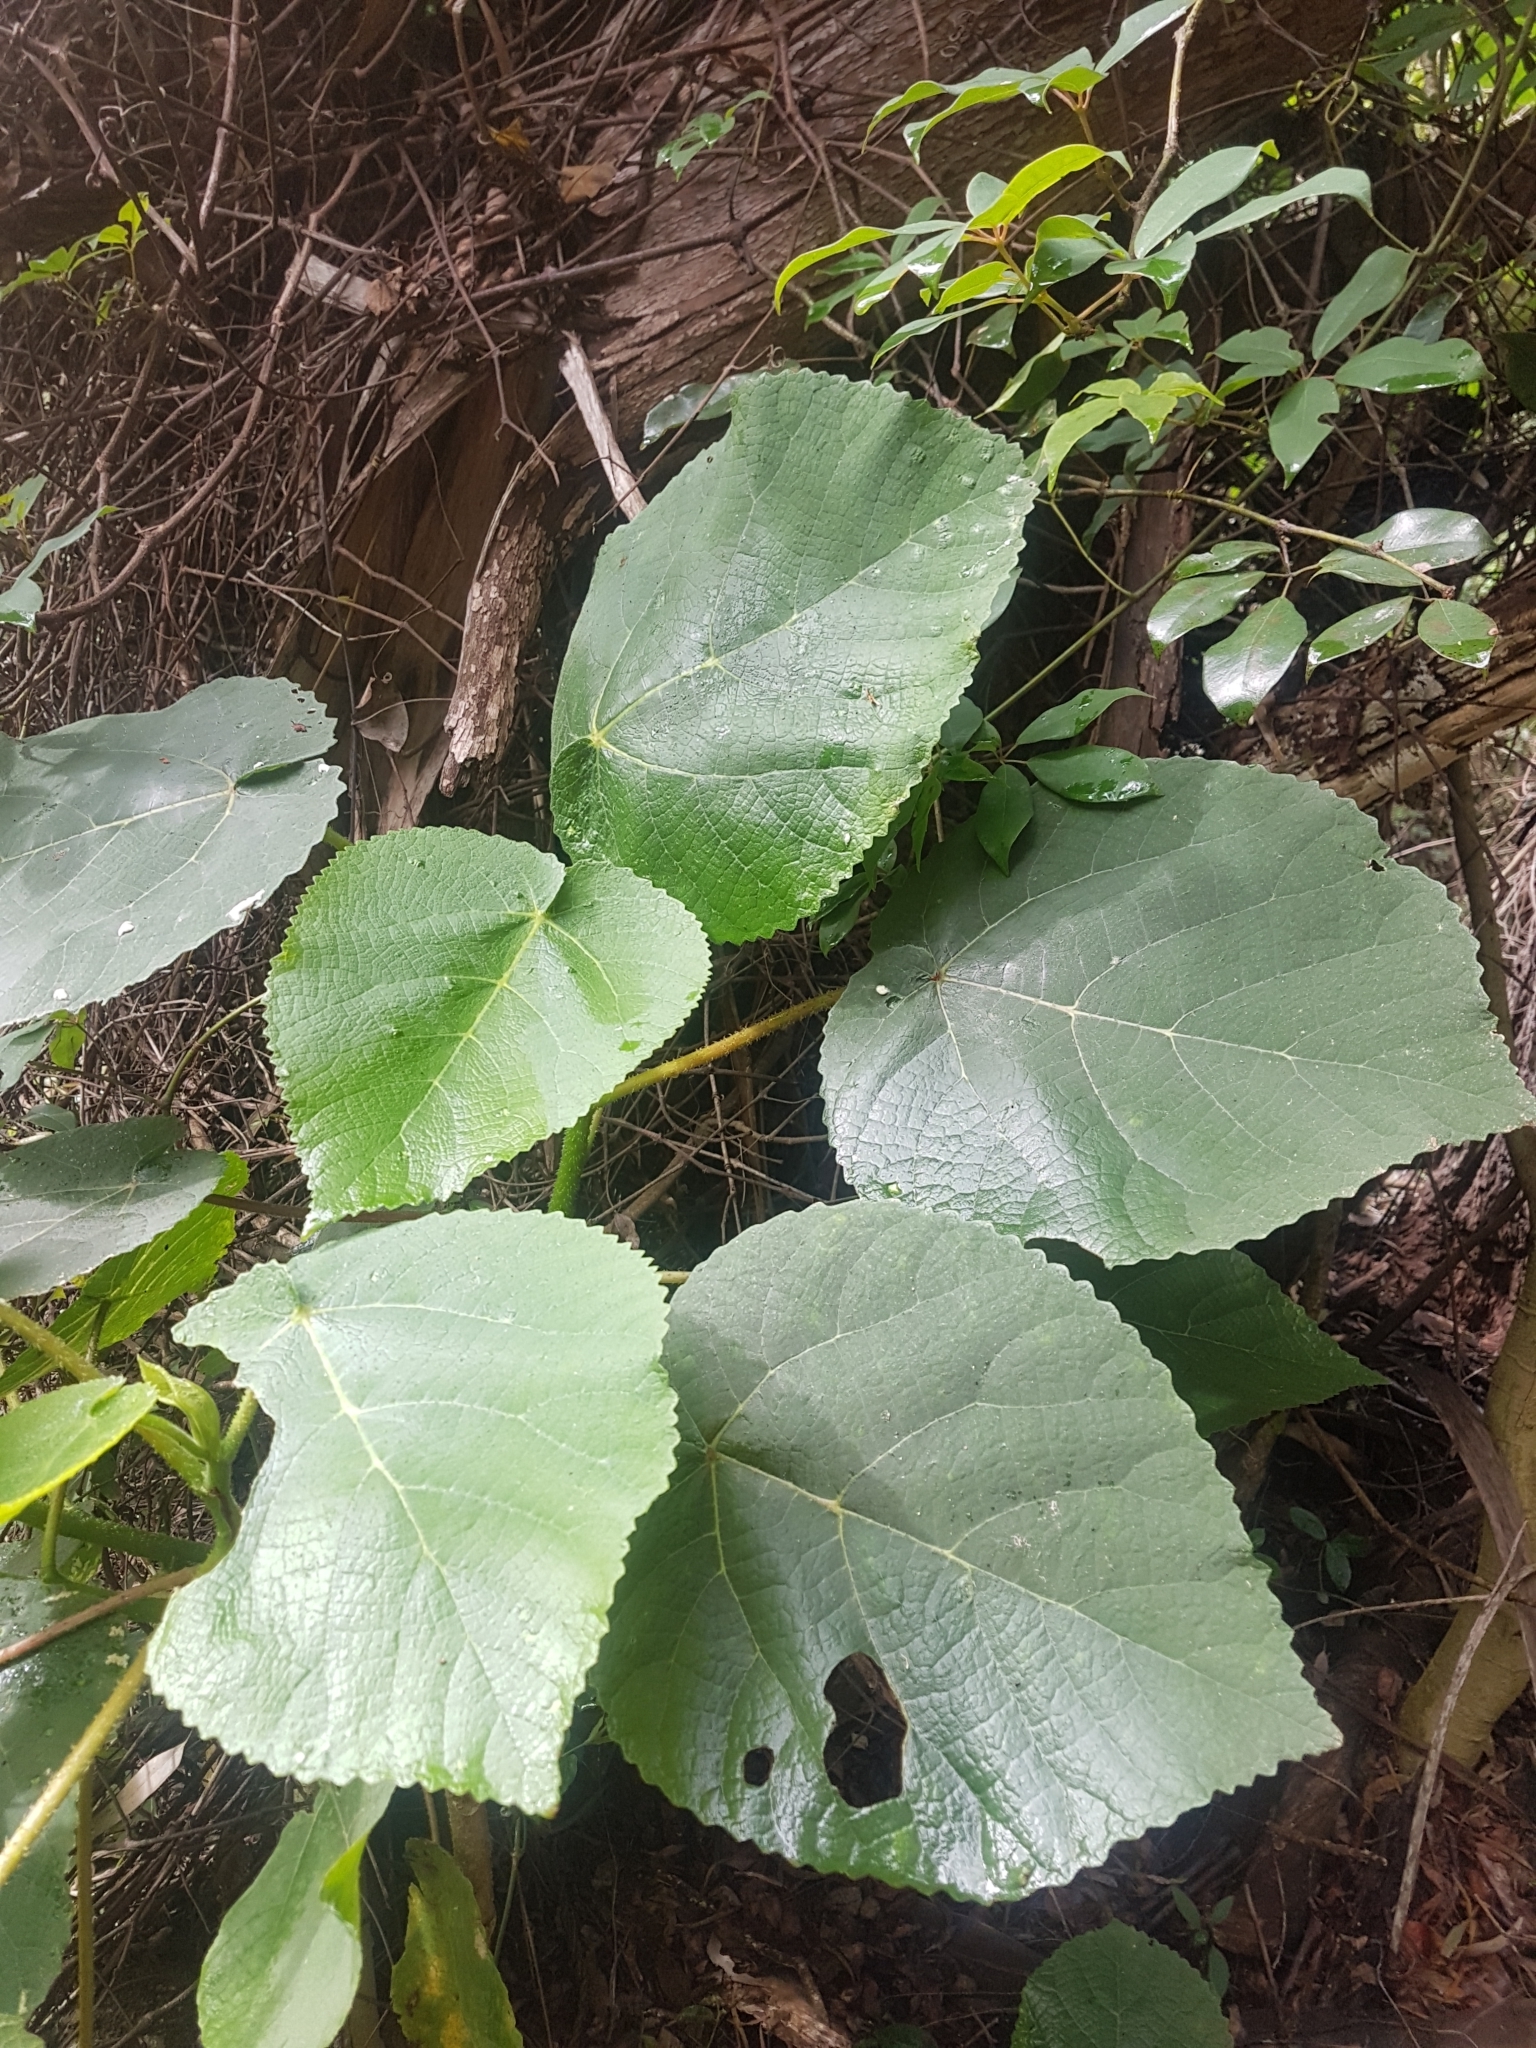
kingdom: Plantae
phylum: Tracheophyta
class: Magnoliopsida
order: Rosales
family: Urticaceae
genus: Dendrocnide
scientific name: Dendrocnide excelsa
